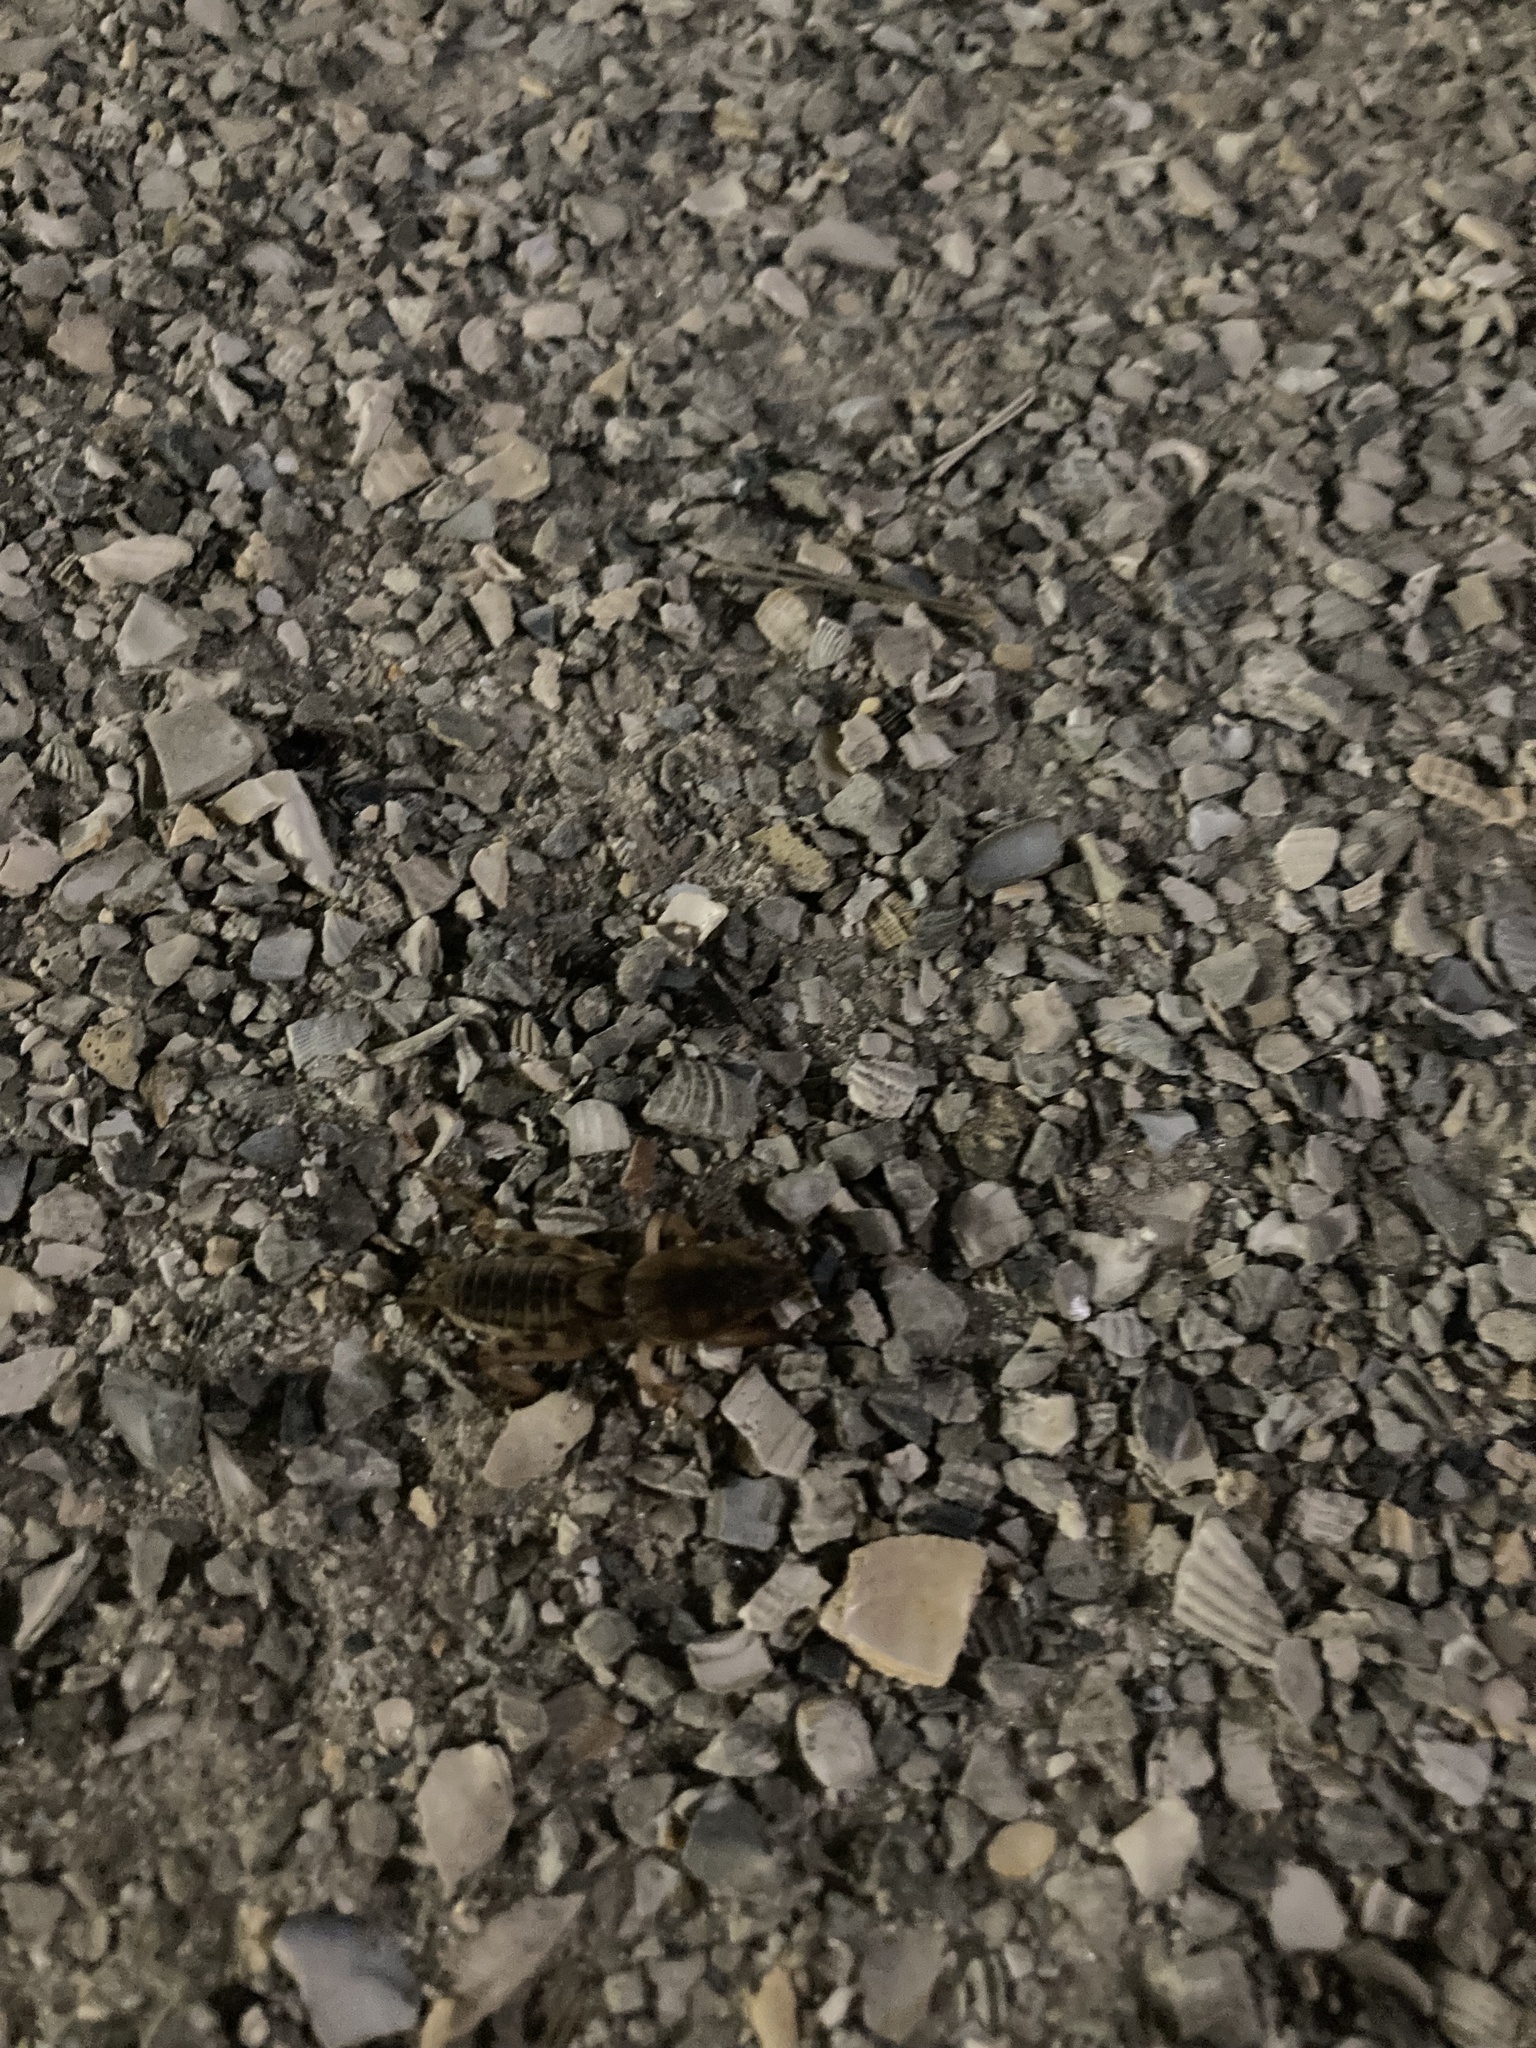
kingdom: Animalia
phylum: Arthropoda
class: Insecta
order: Orthoptera
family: Gryllotalpidae
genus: Neoscapteriscus
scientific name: Neoscapteriscus abbreviatus
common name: Short-winged mole cricket
